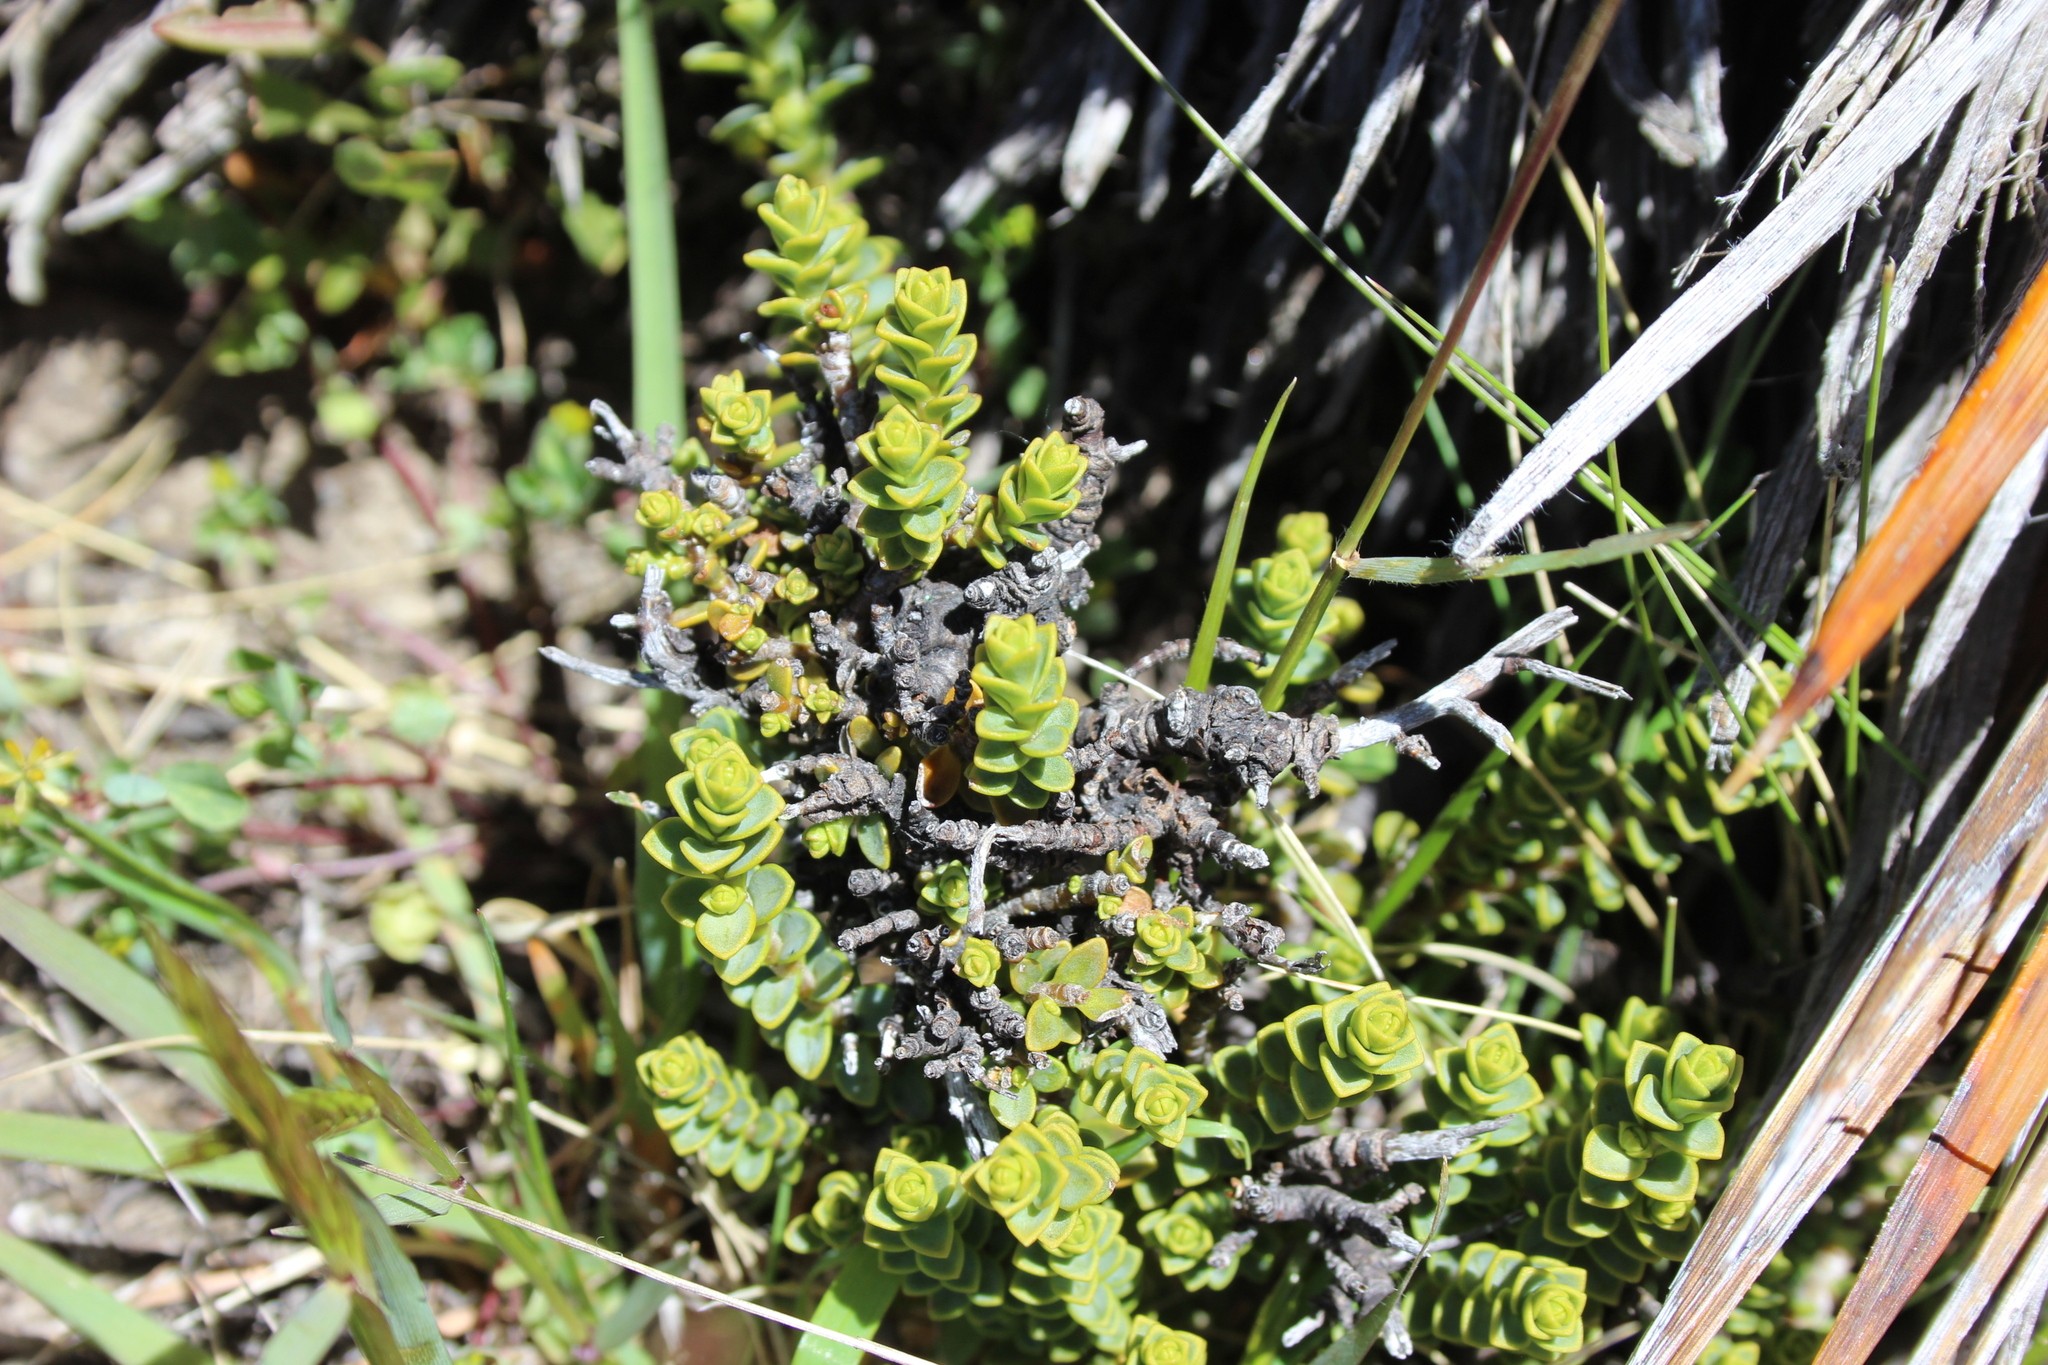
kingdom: Plantae
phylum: Tracheophyta
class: Magnoliopsida
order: Lamiales
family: Plantaginaceae
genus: Veronica
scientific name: Veronica buchananii
